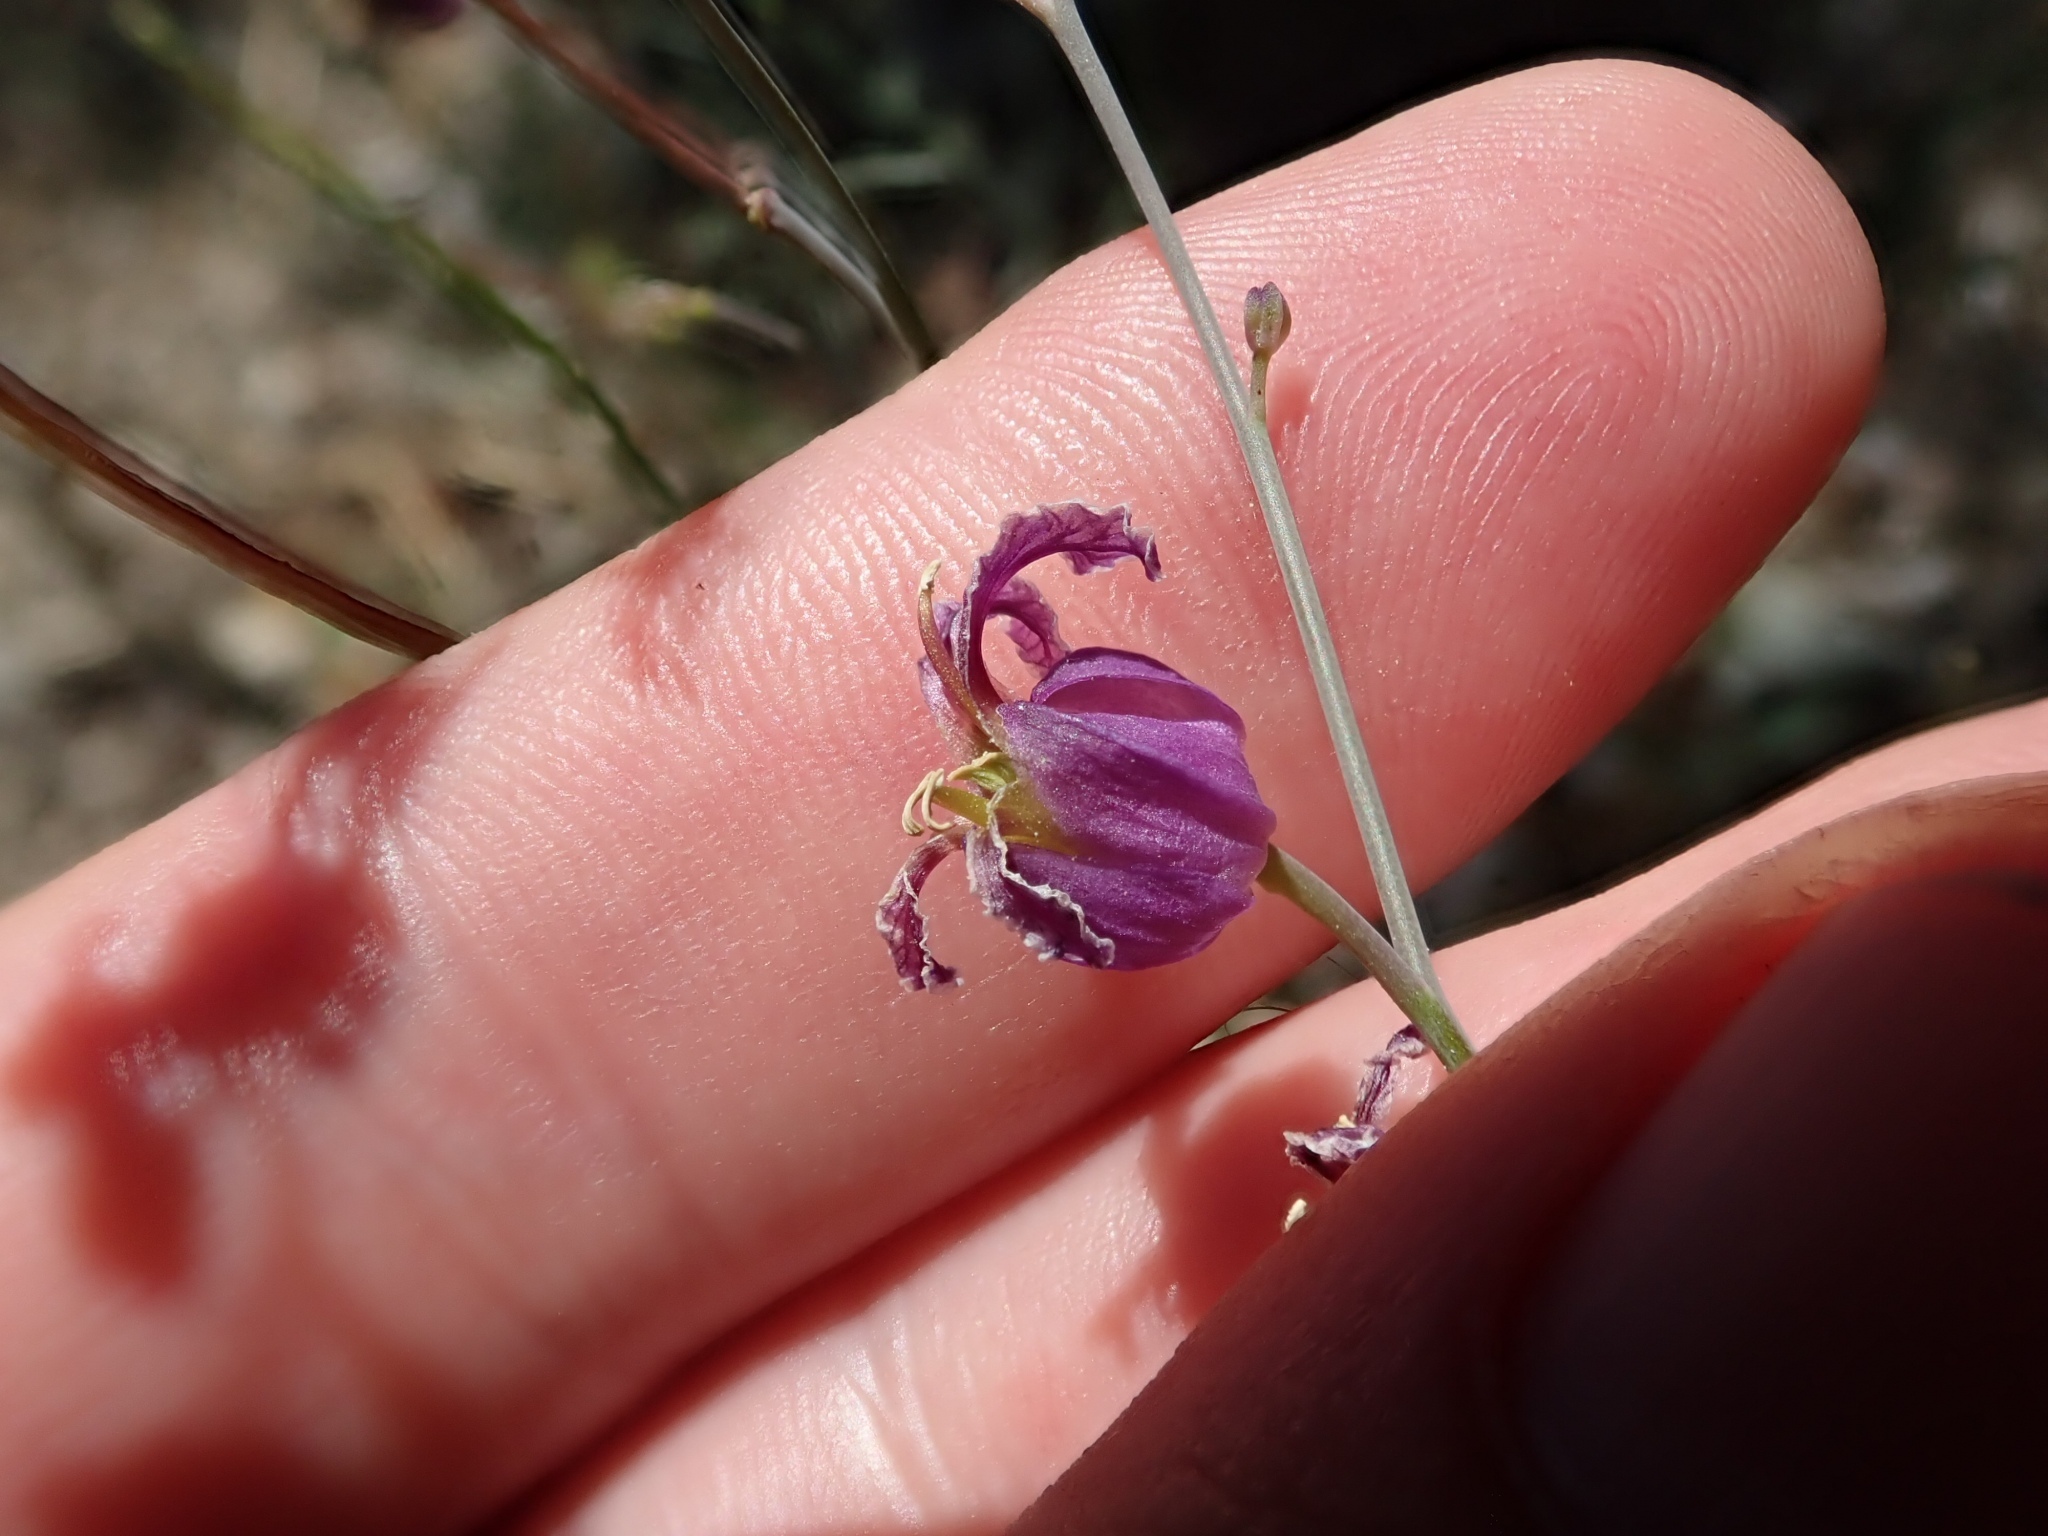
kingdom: Plantae
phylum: Tracheophyta
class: Magnoliopsida
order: Brassicales
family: Brassicaceae
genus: Streptanthus
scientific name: Streptanthus glandulosus
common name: Jewel-flower
